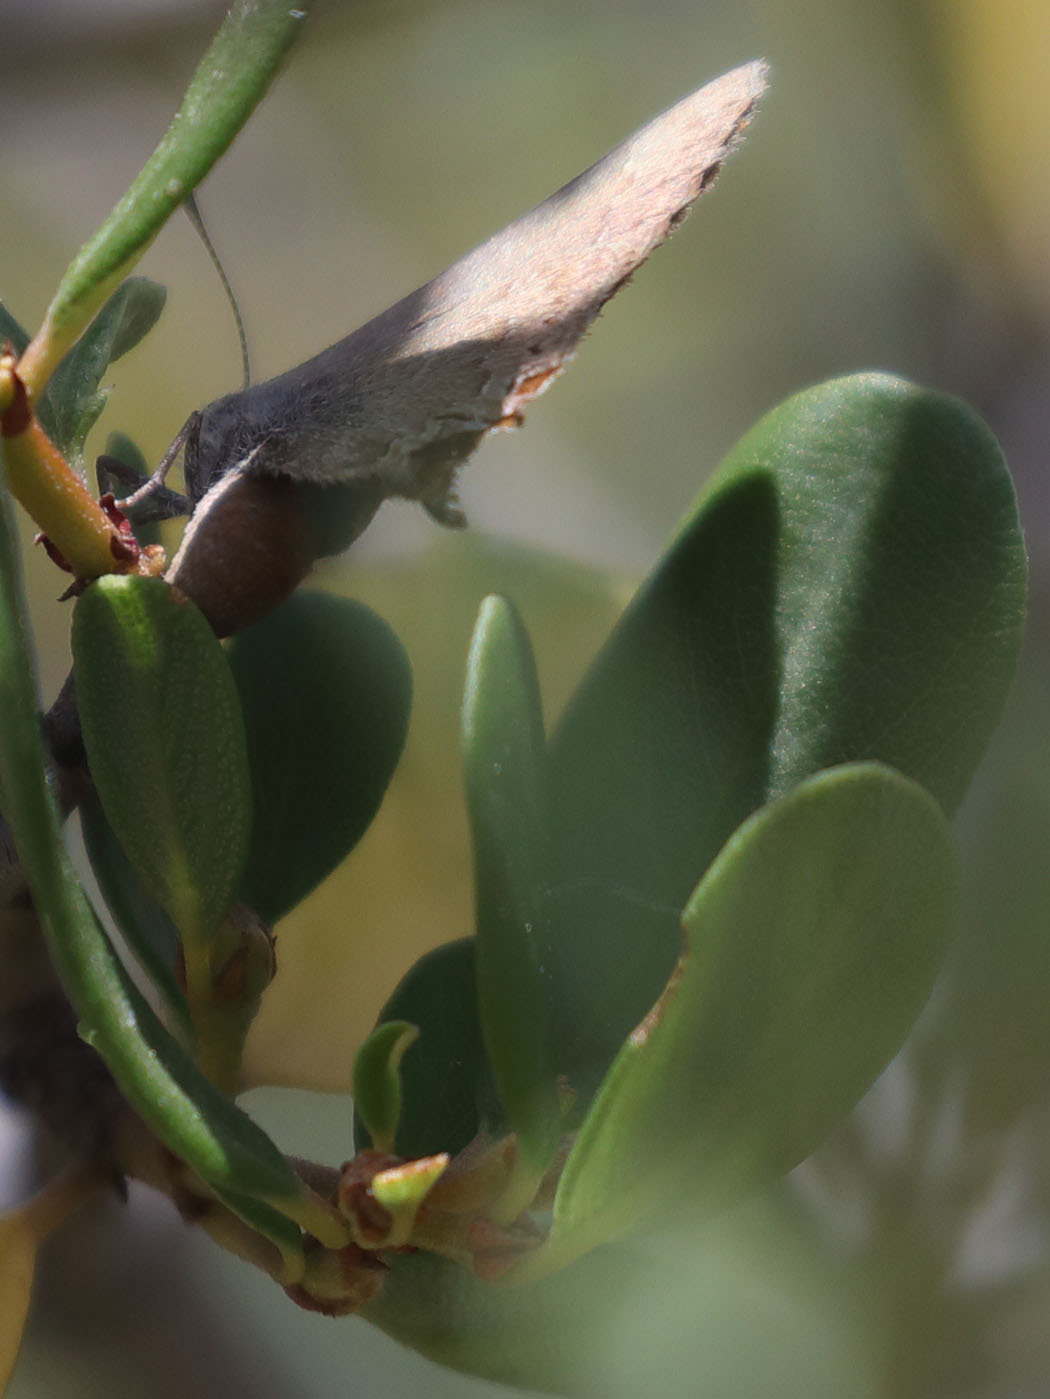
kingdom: Animalia
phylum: Arthropoda
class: Insecta
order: Lepidoptera
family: Lycaenidae
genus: Strymon
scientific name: Strymon saepium
